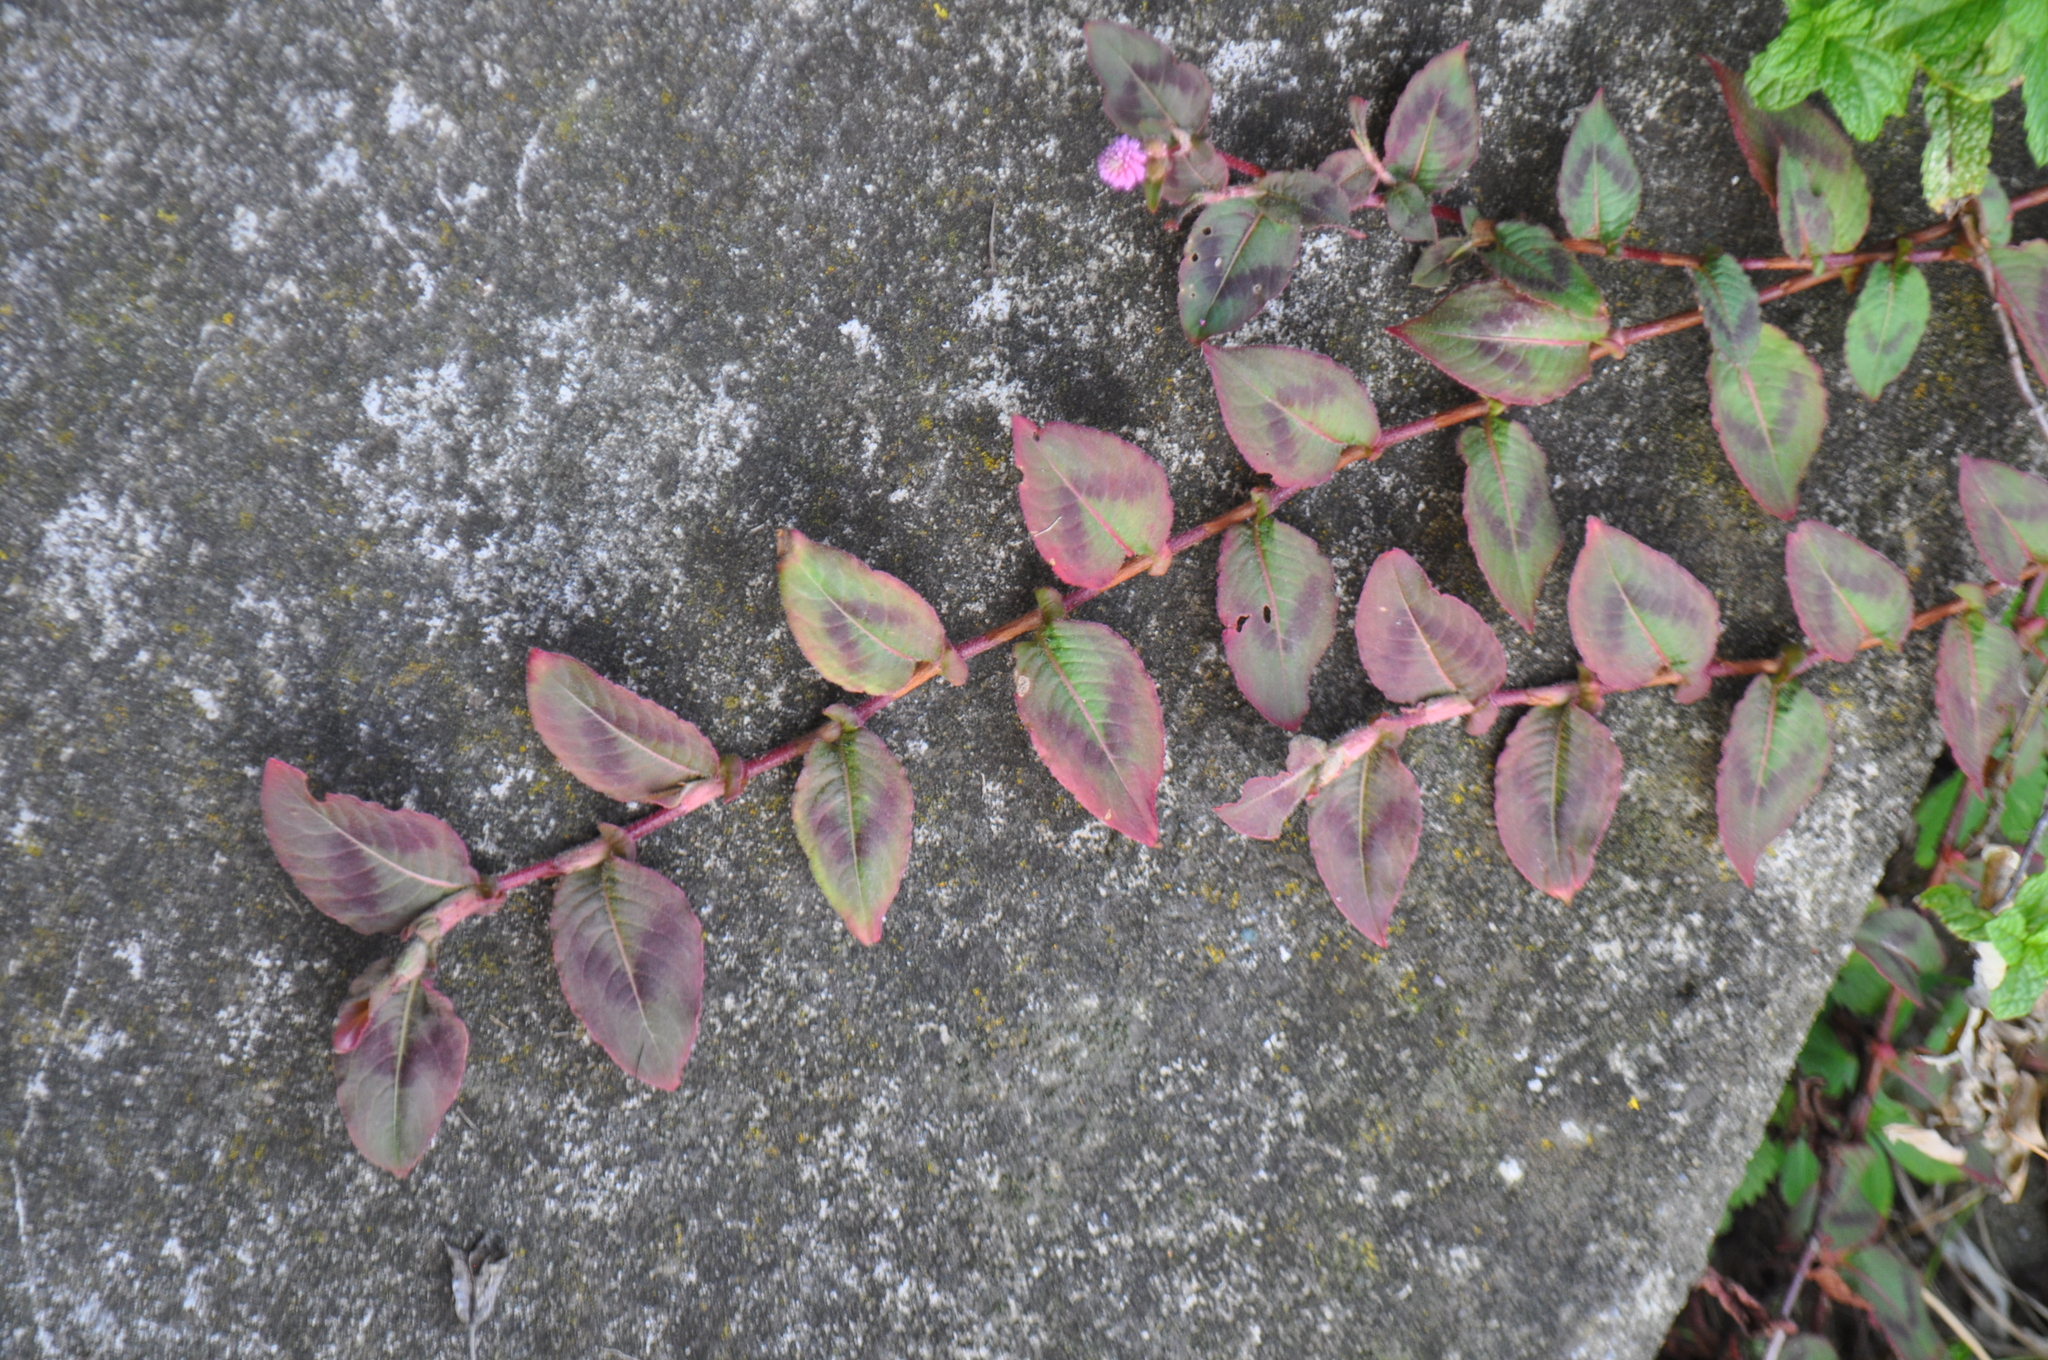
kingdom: Plantae
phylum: Tracheophyta
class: Magnoliopsida
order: Caryophyllales
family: Polygonaceae
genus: Persicaria
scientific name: Persicaria capitata
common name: Pinkhead smartweed
